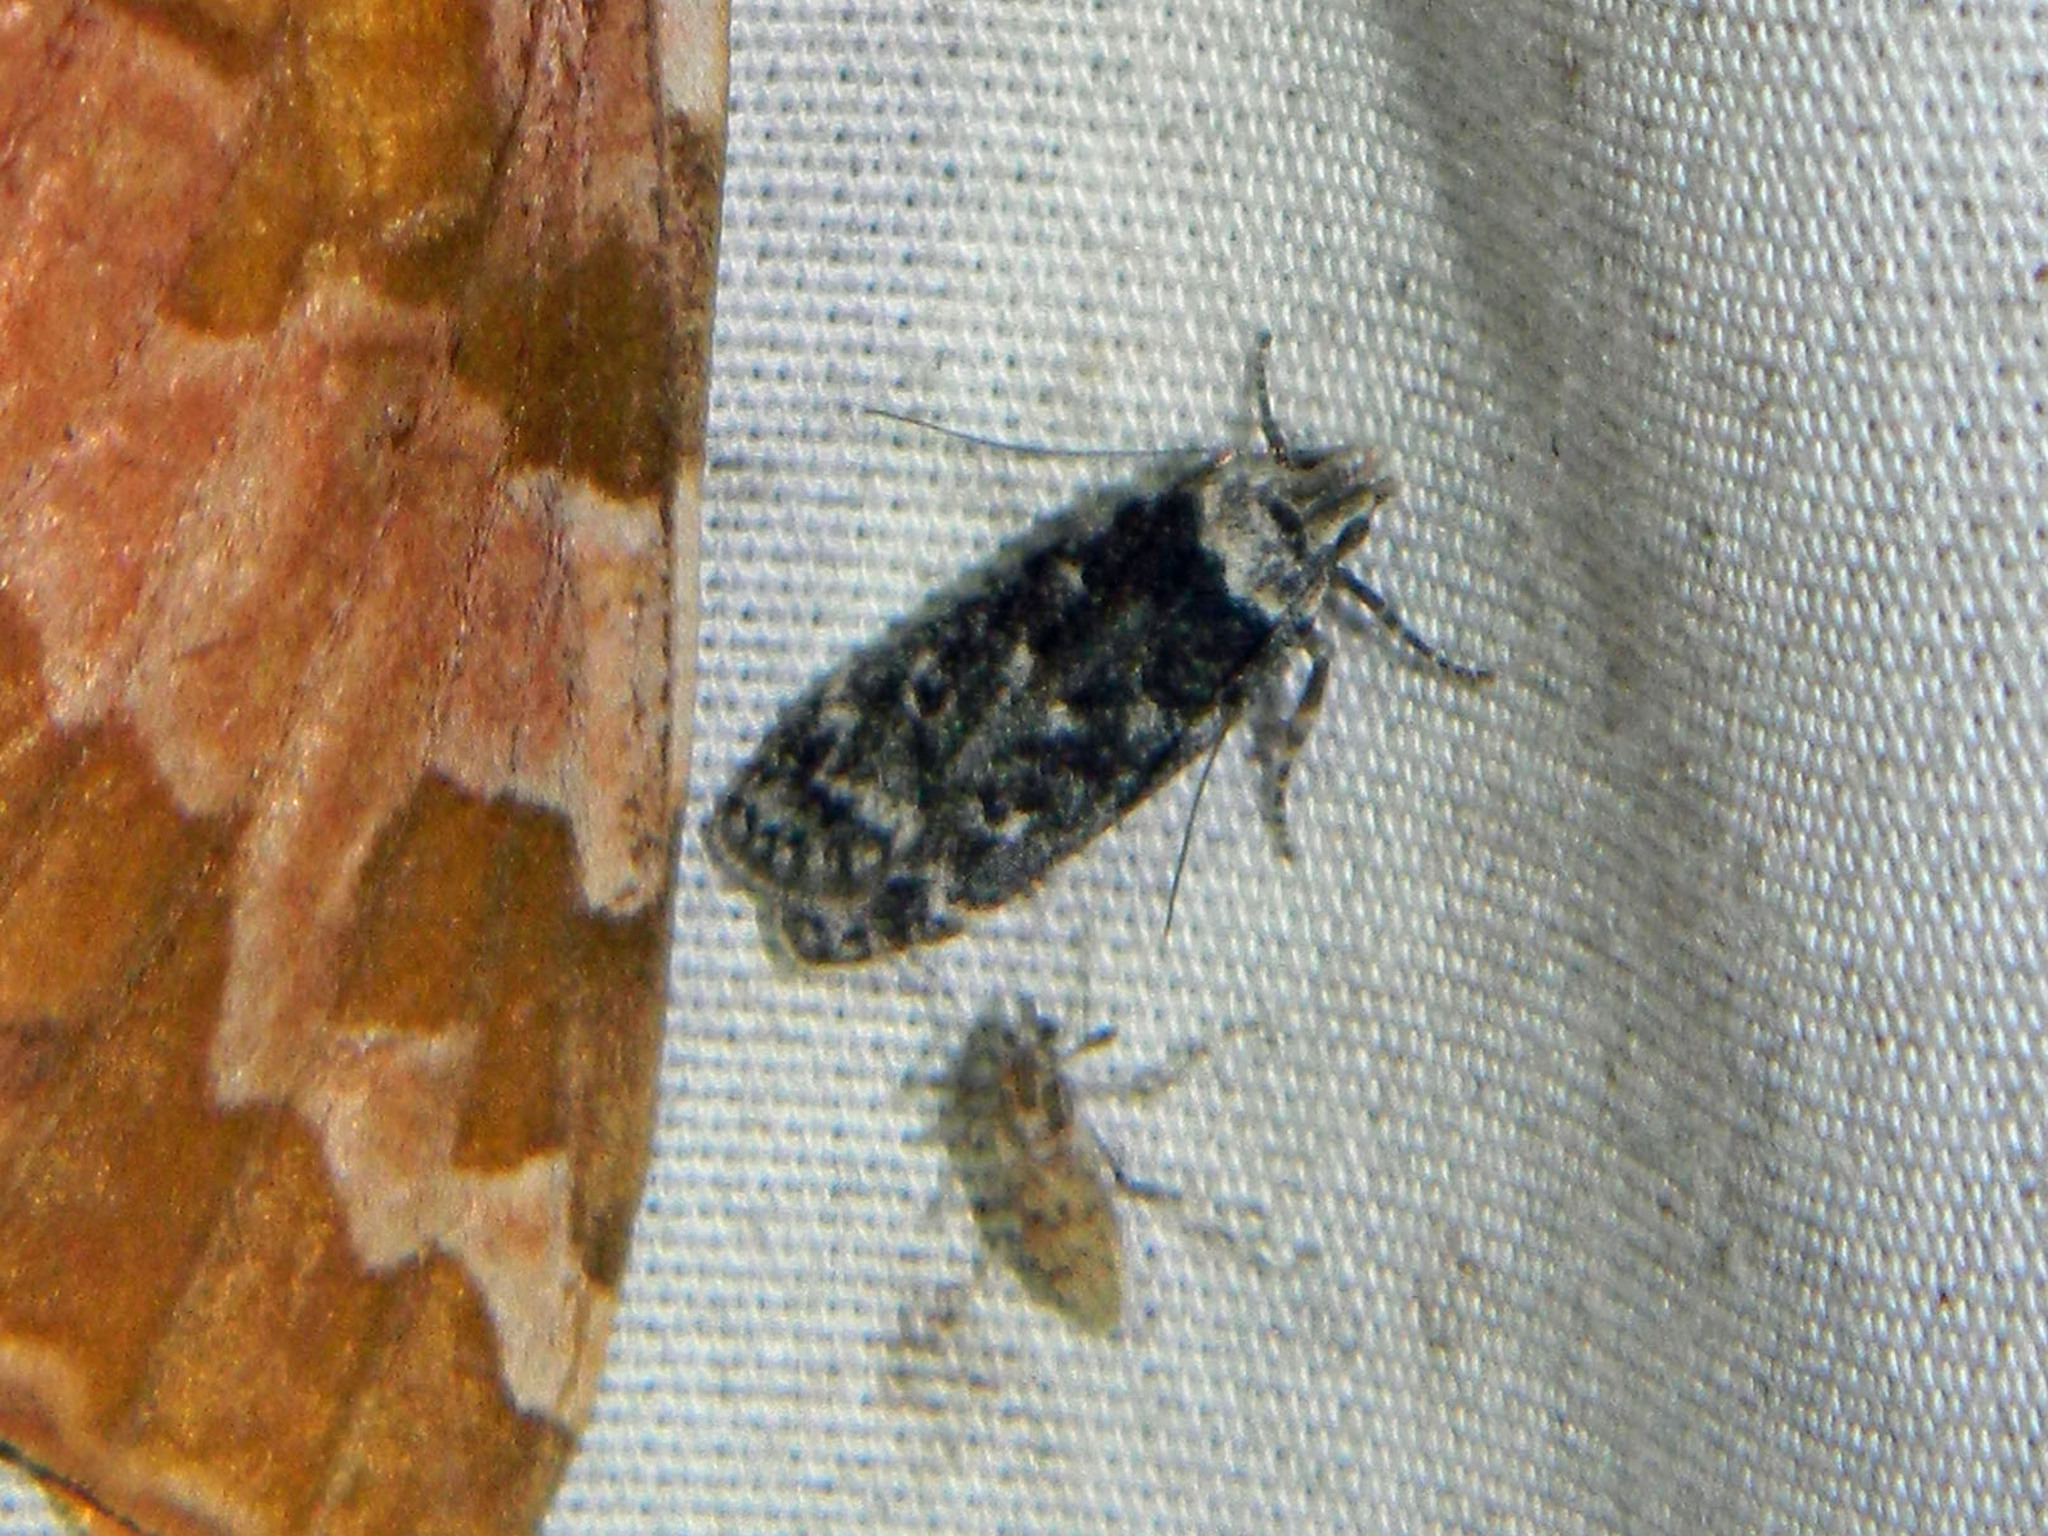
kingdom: Animalia
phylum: Arthropoda
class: Insecta
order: Lepidoptera
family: Gelechiidae
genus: Anacampsis
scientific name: Anacampsis niveopulvella
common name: Pale-headed aspen leafroller moth
